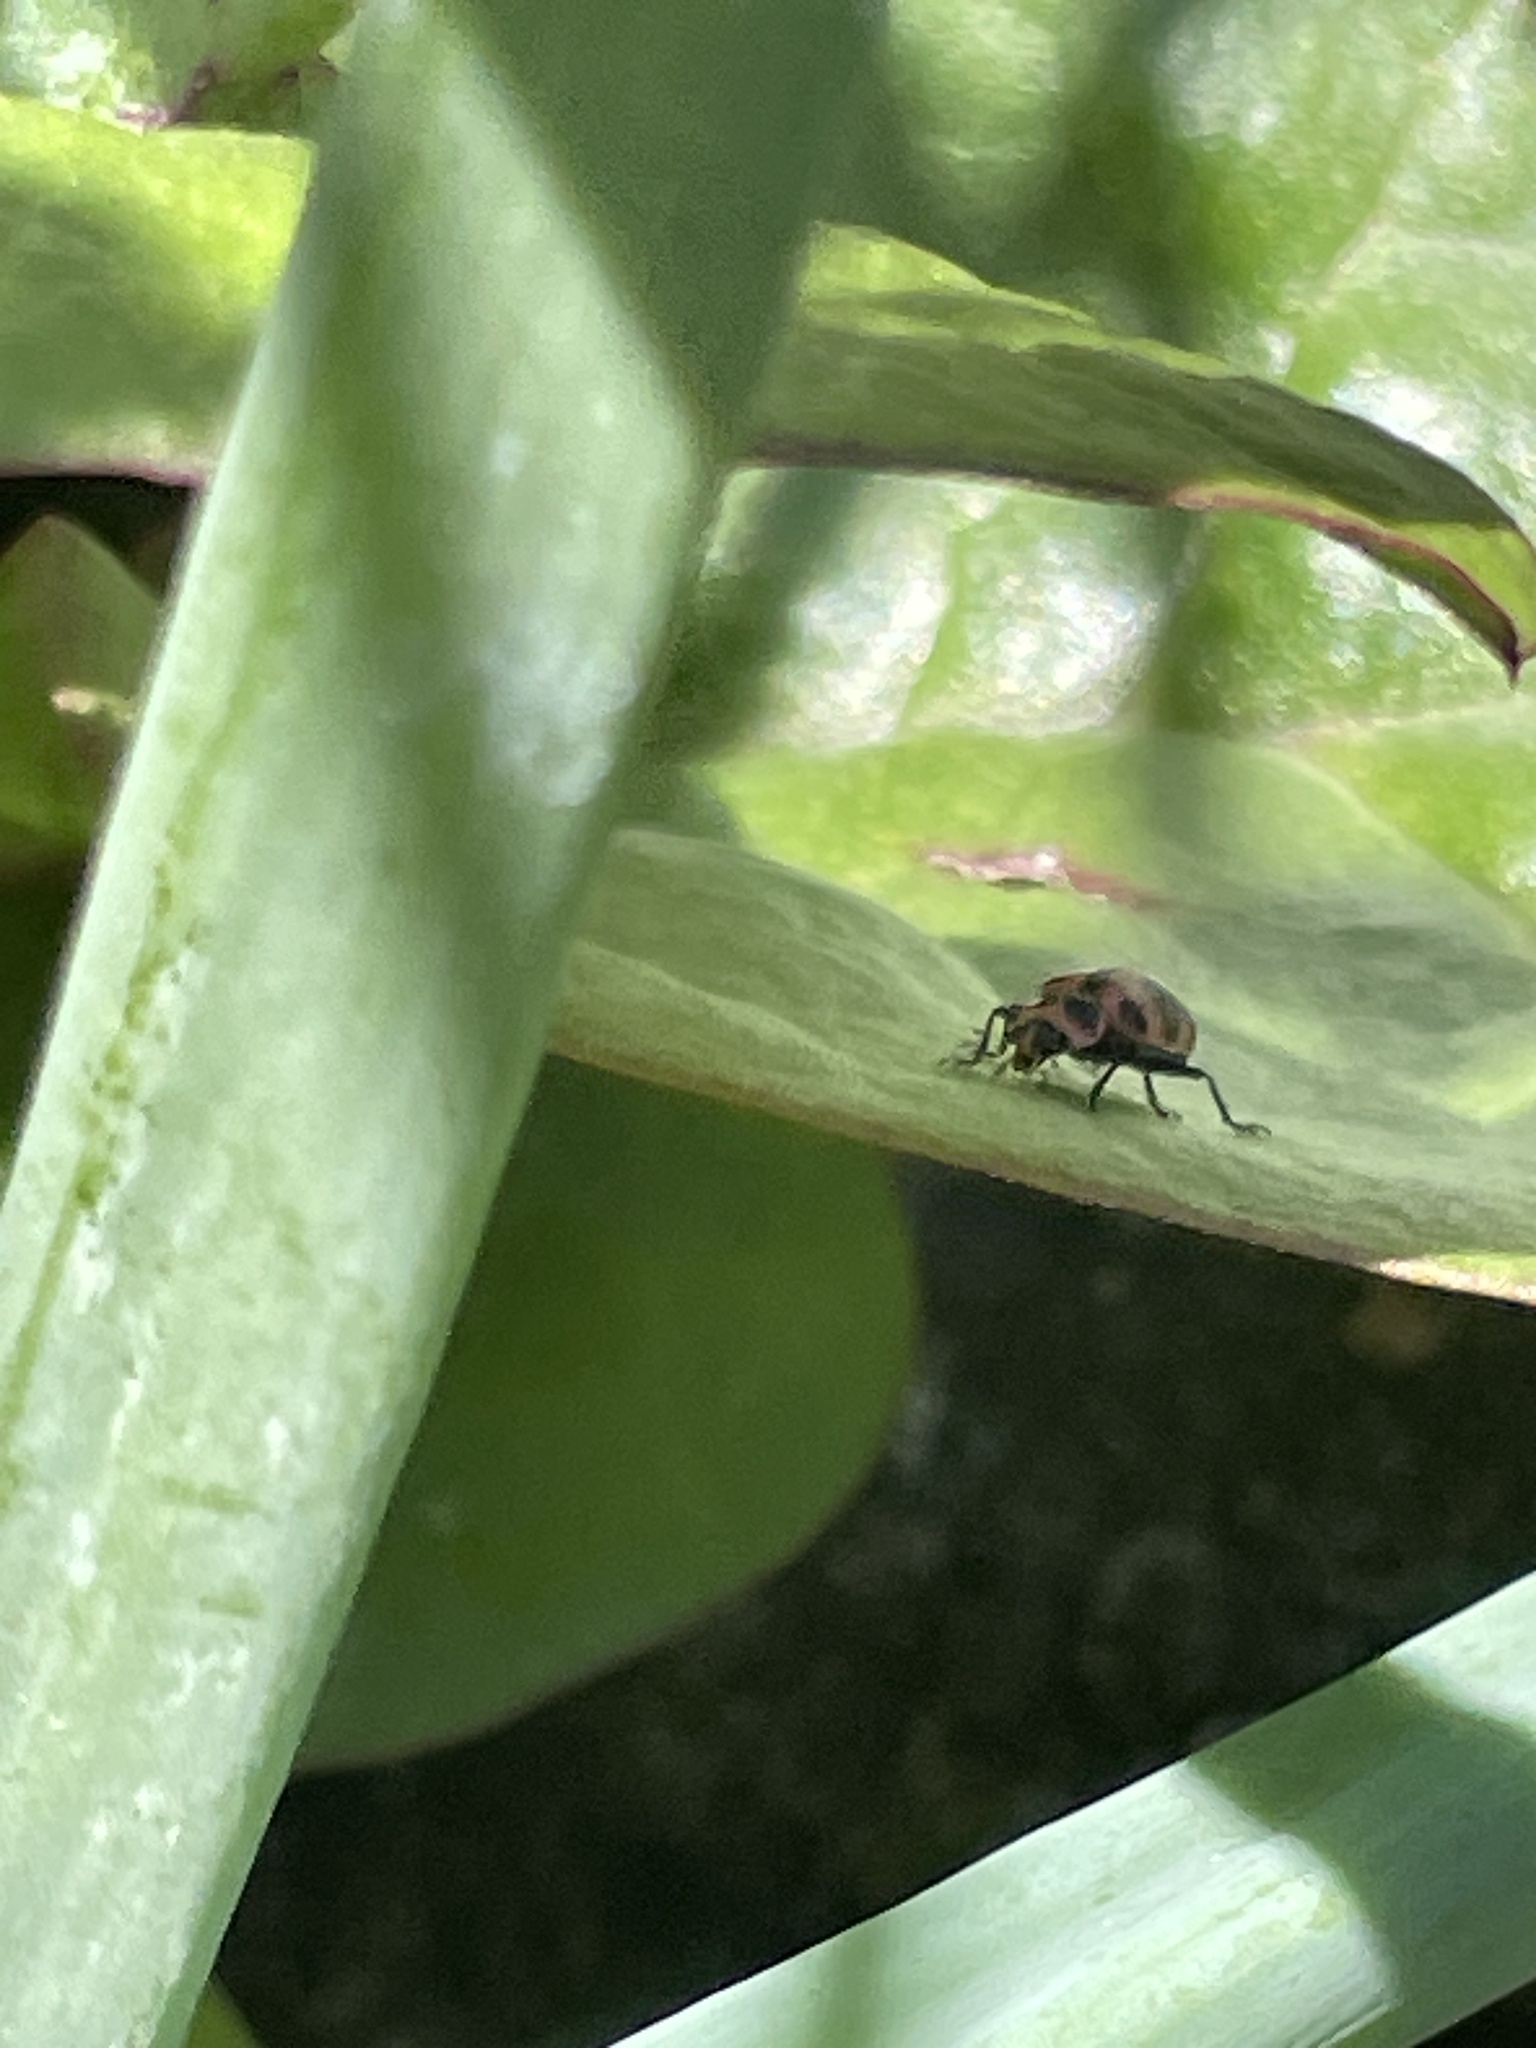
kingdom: Animalia
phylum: Arthropoda
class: Insecta
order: Coleoptera
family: Coccinellidae
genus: Coleomegilla
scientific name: Coleomegilla maculata
